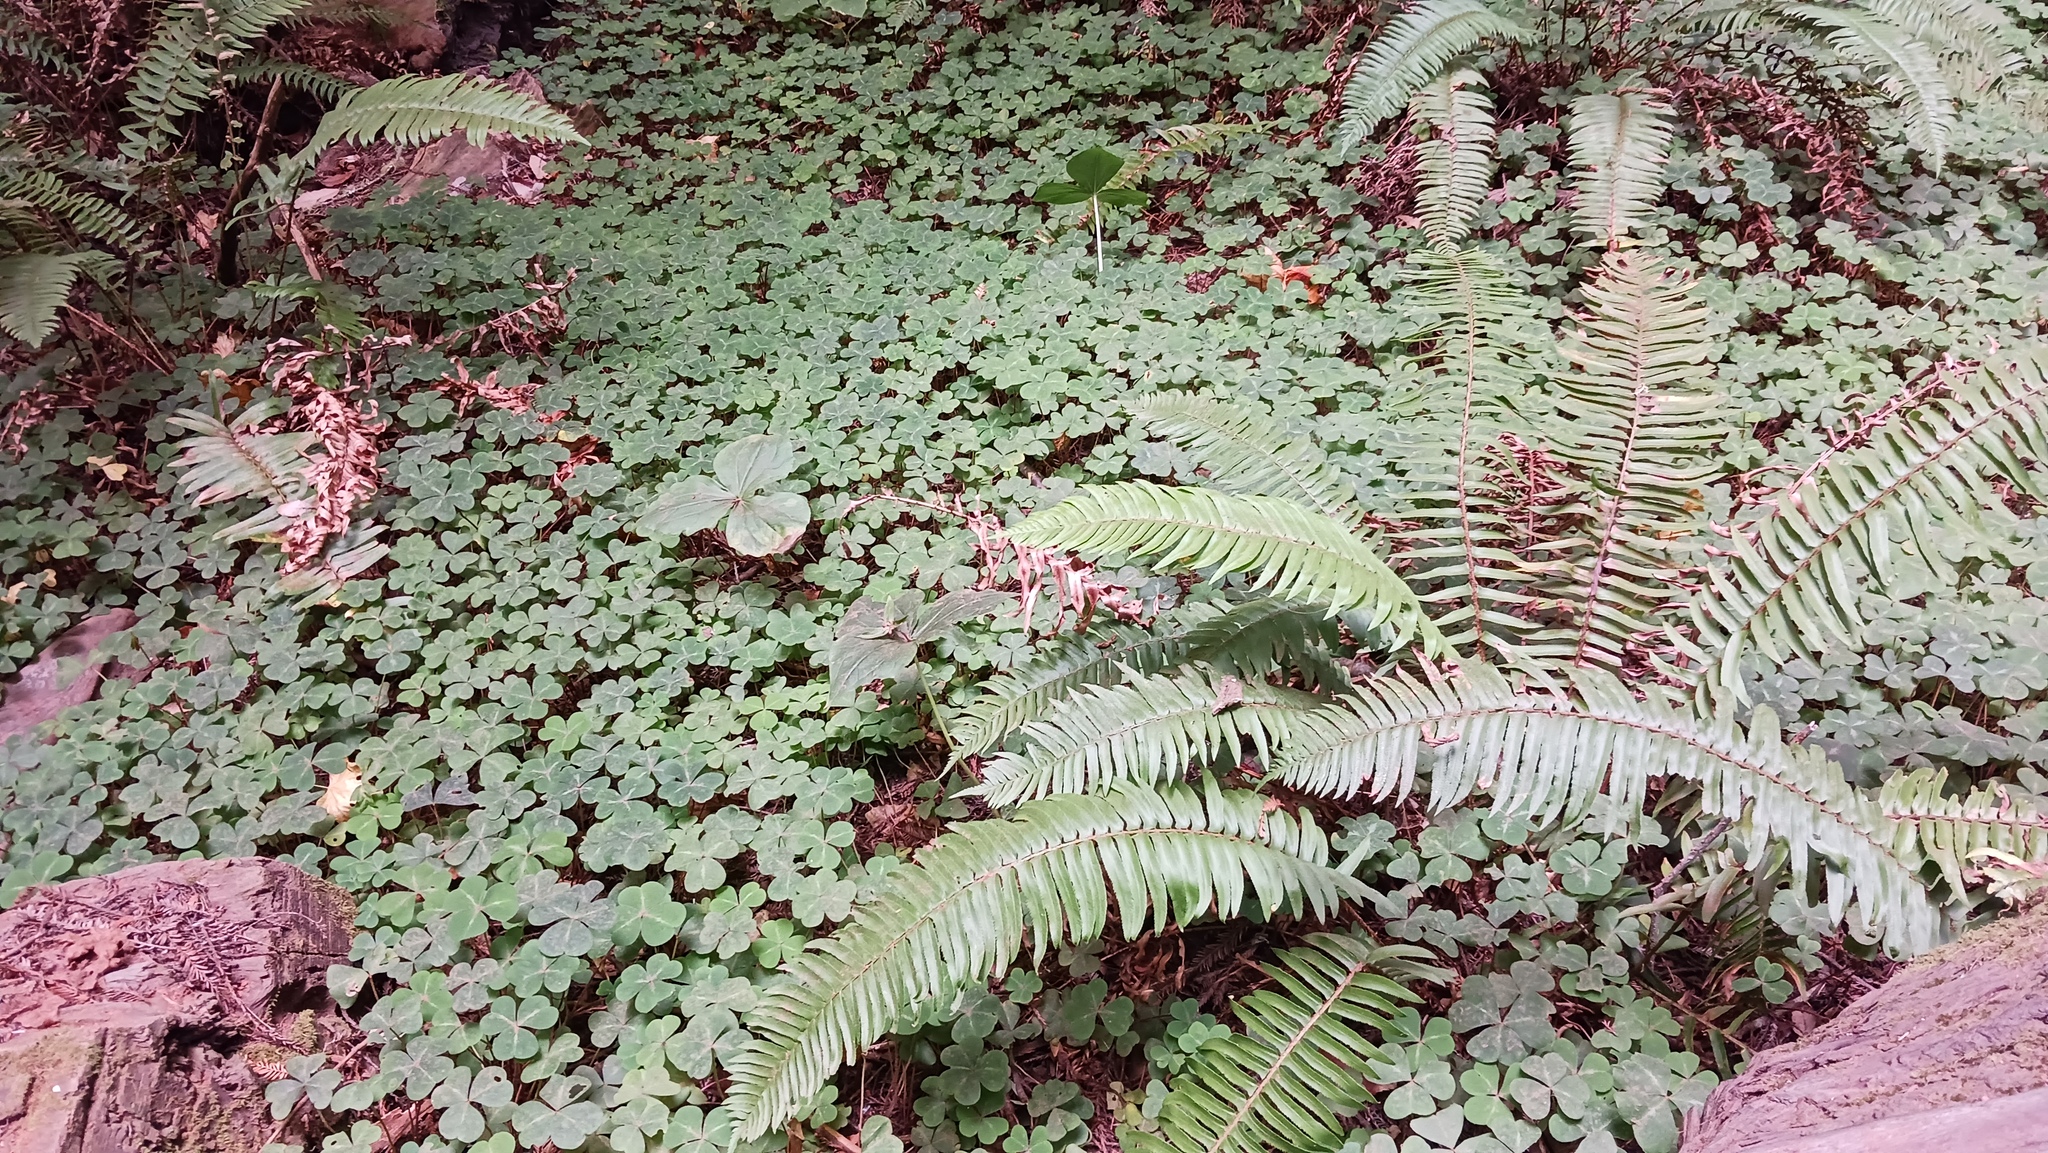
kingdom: Plantae
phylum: Tracheophyta
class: Magnoliopsida
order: Oxalidales
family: Oxalidaceae
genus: Oxalis
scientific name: Oxalis oregana
